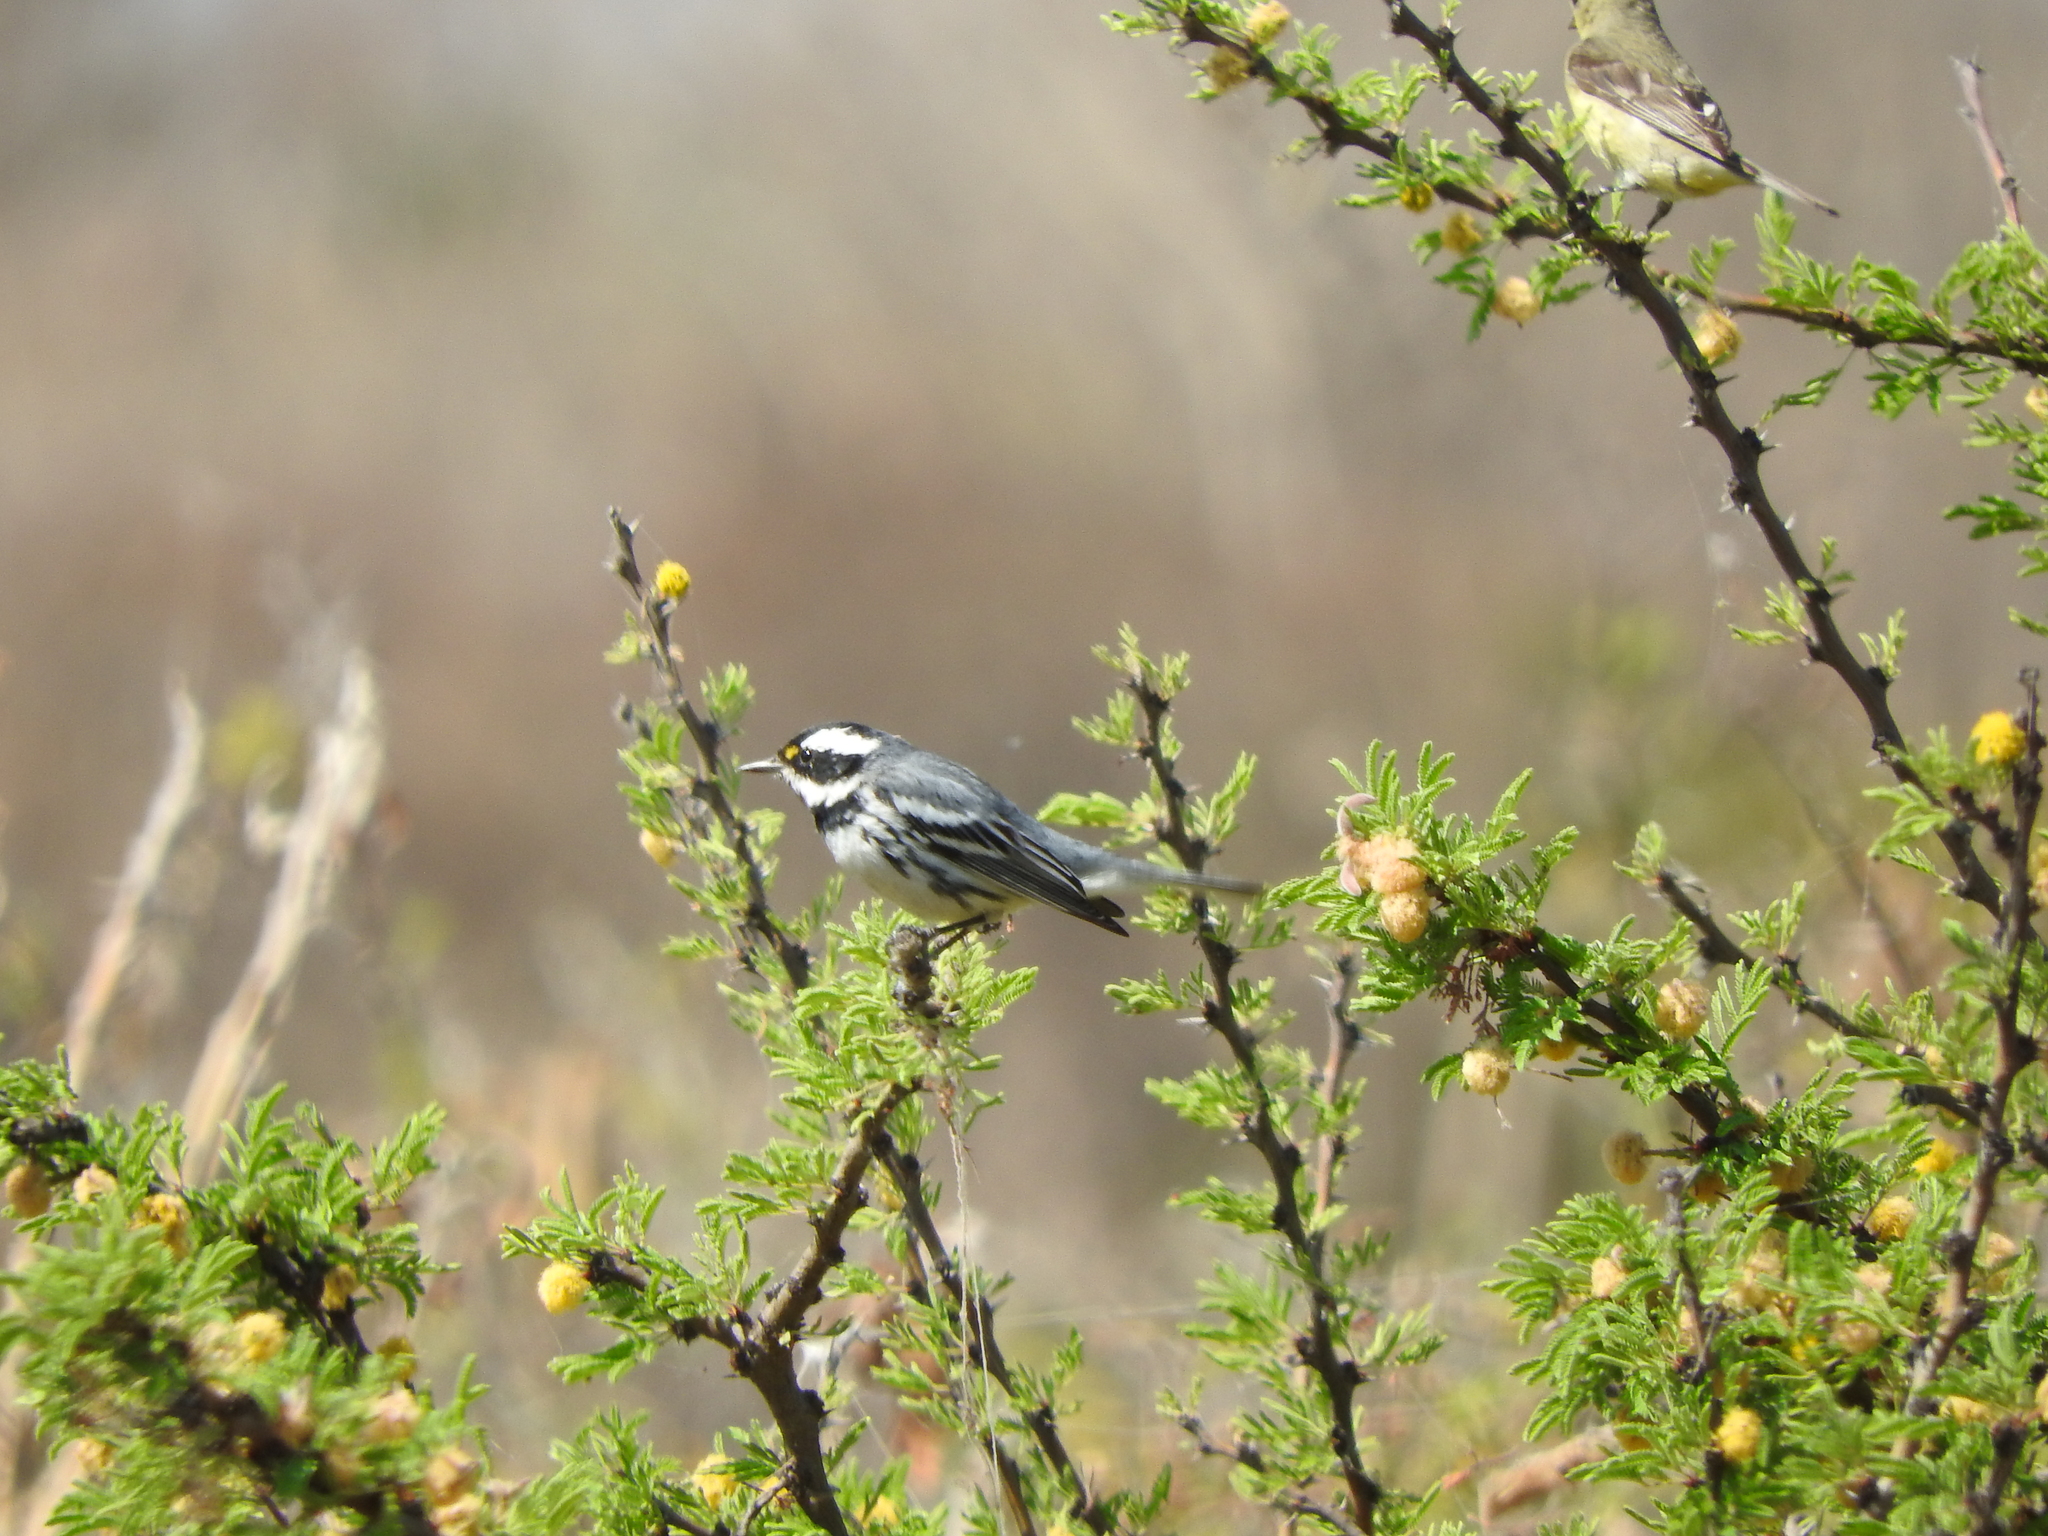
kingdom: Animalia
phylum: Chordata
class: Aves
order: Passeriformes
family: Parulidae
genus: Setophaga
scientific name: Setophaga nigrescens
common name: Black-throated gray warbler
